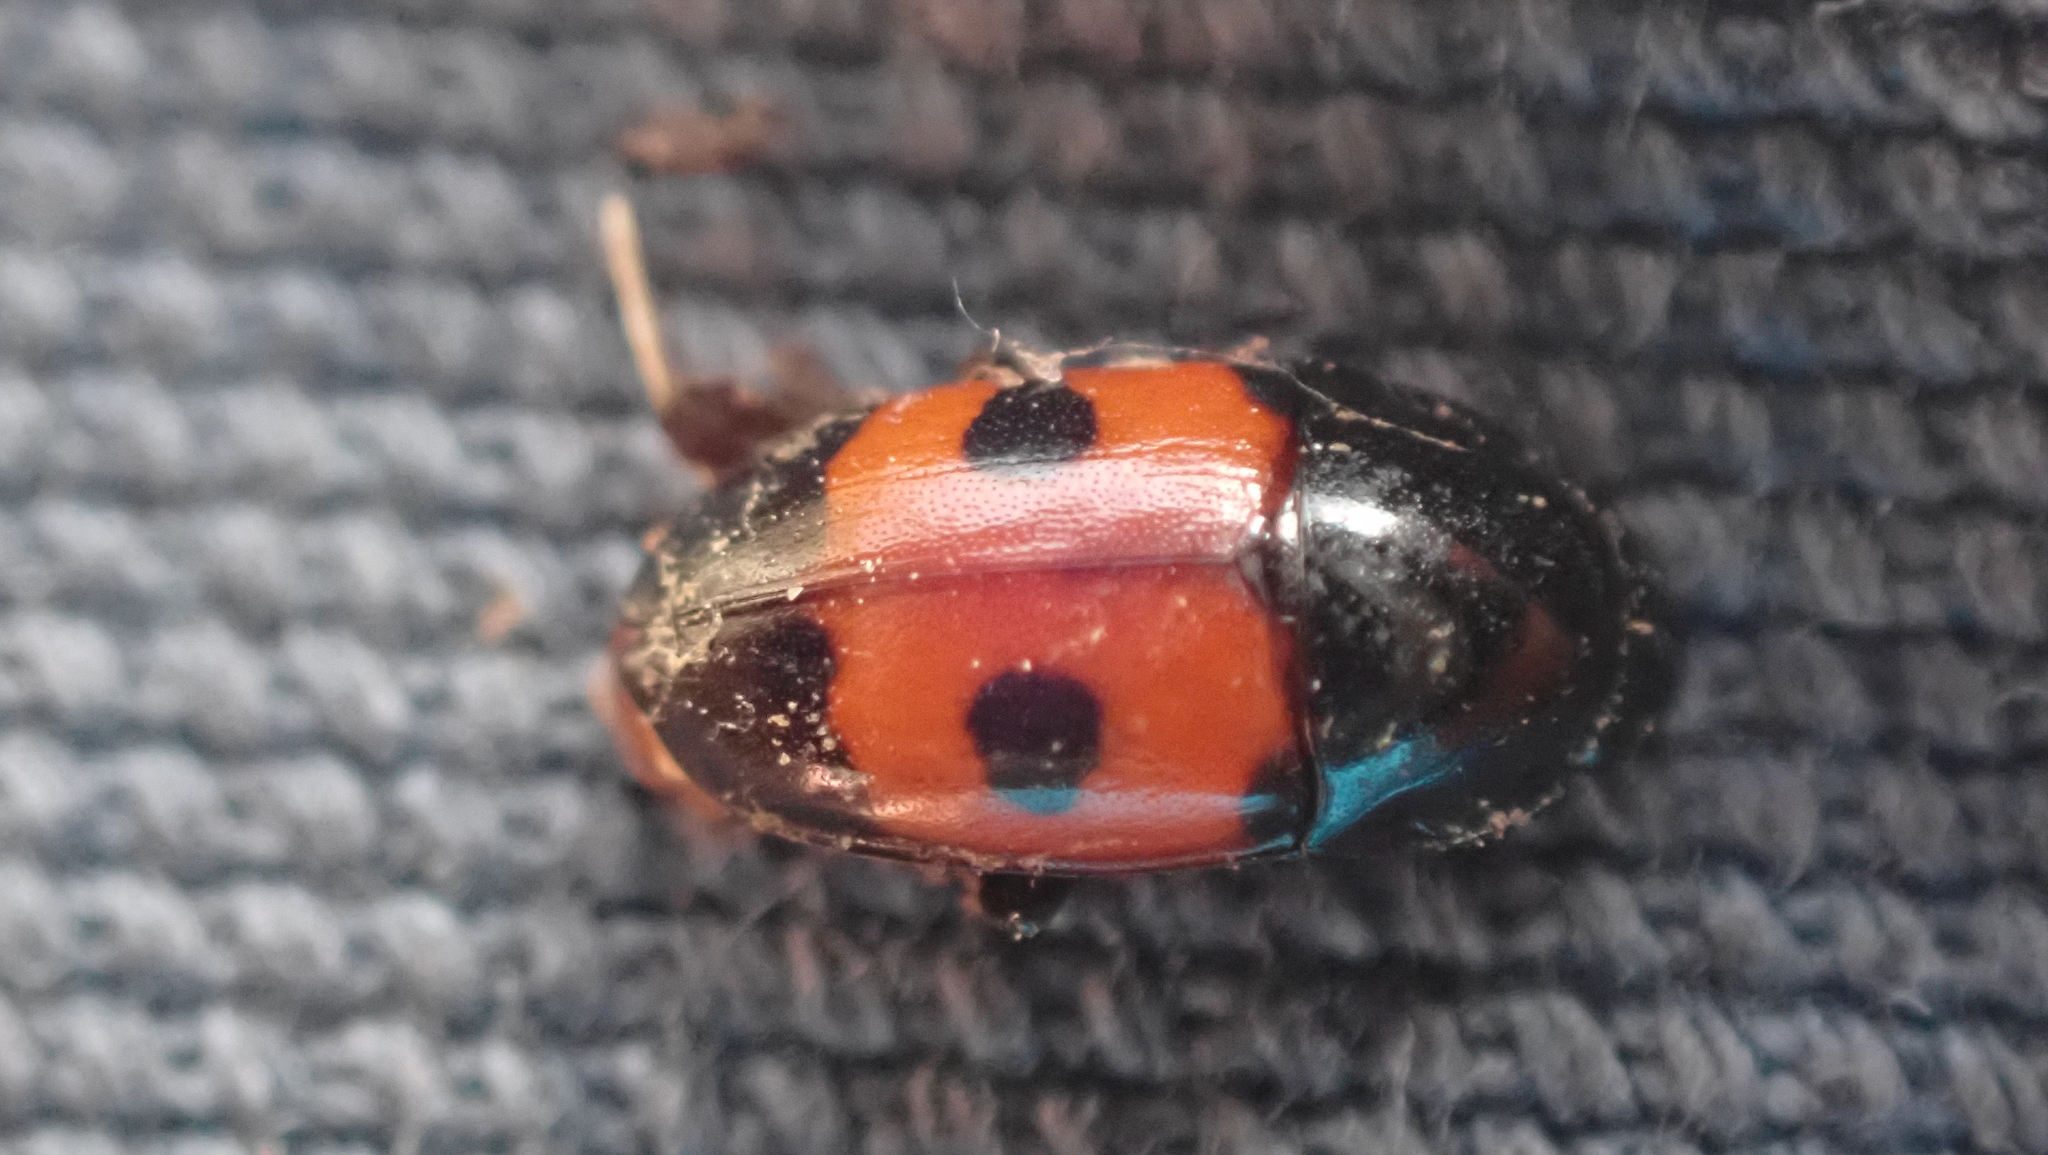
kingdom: Animalia
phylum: Arthropoda
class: Insecta
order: Coleoptera
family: Nitidulidae
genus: Glischrochilus
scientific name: Glischrochilus sanguinolentus
